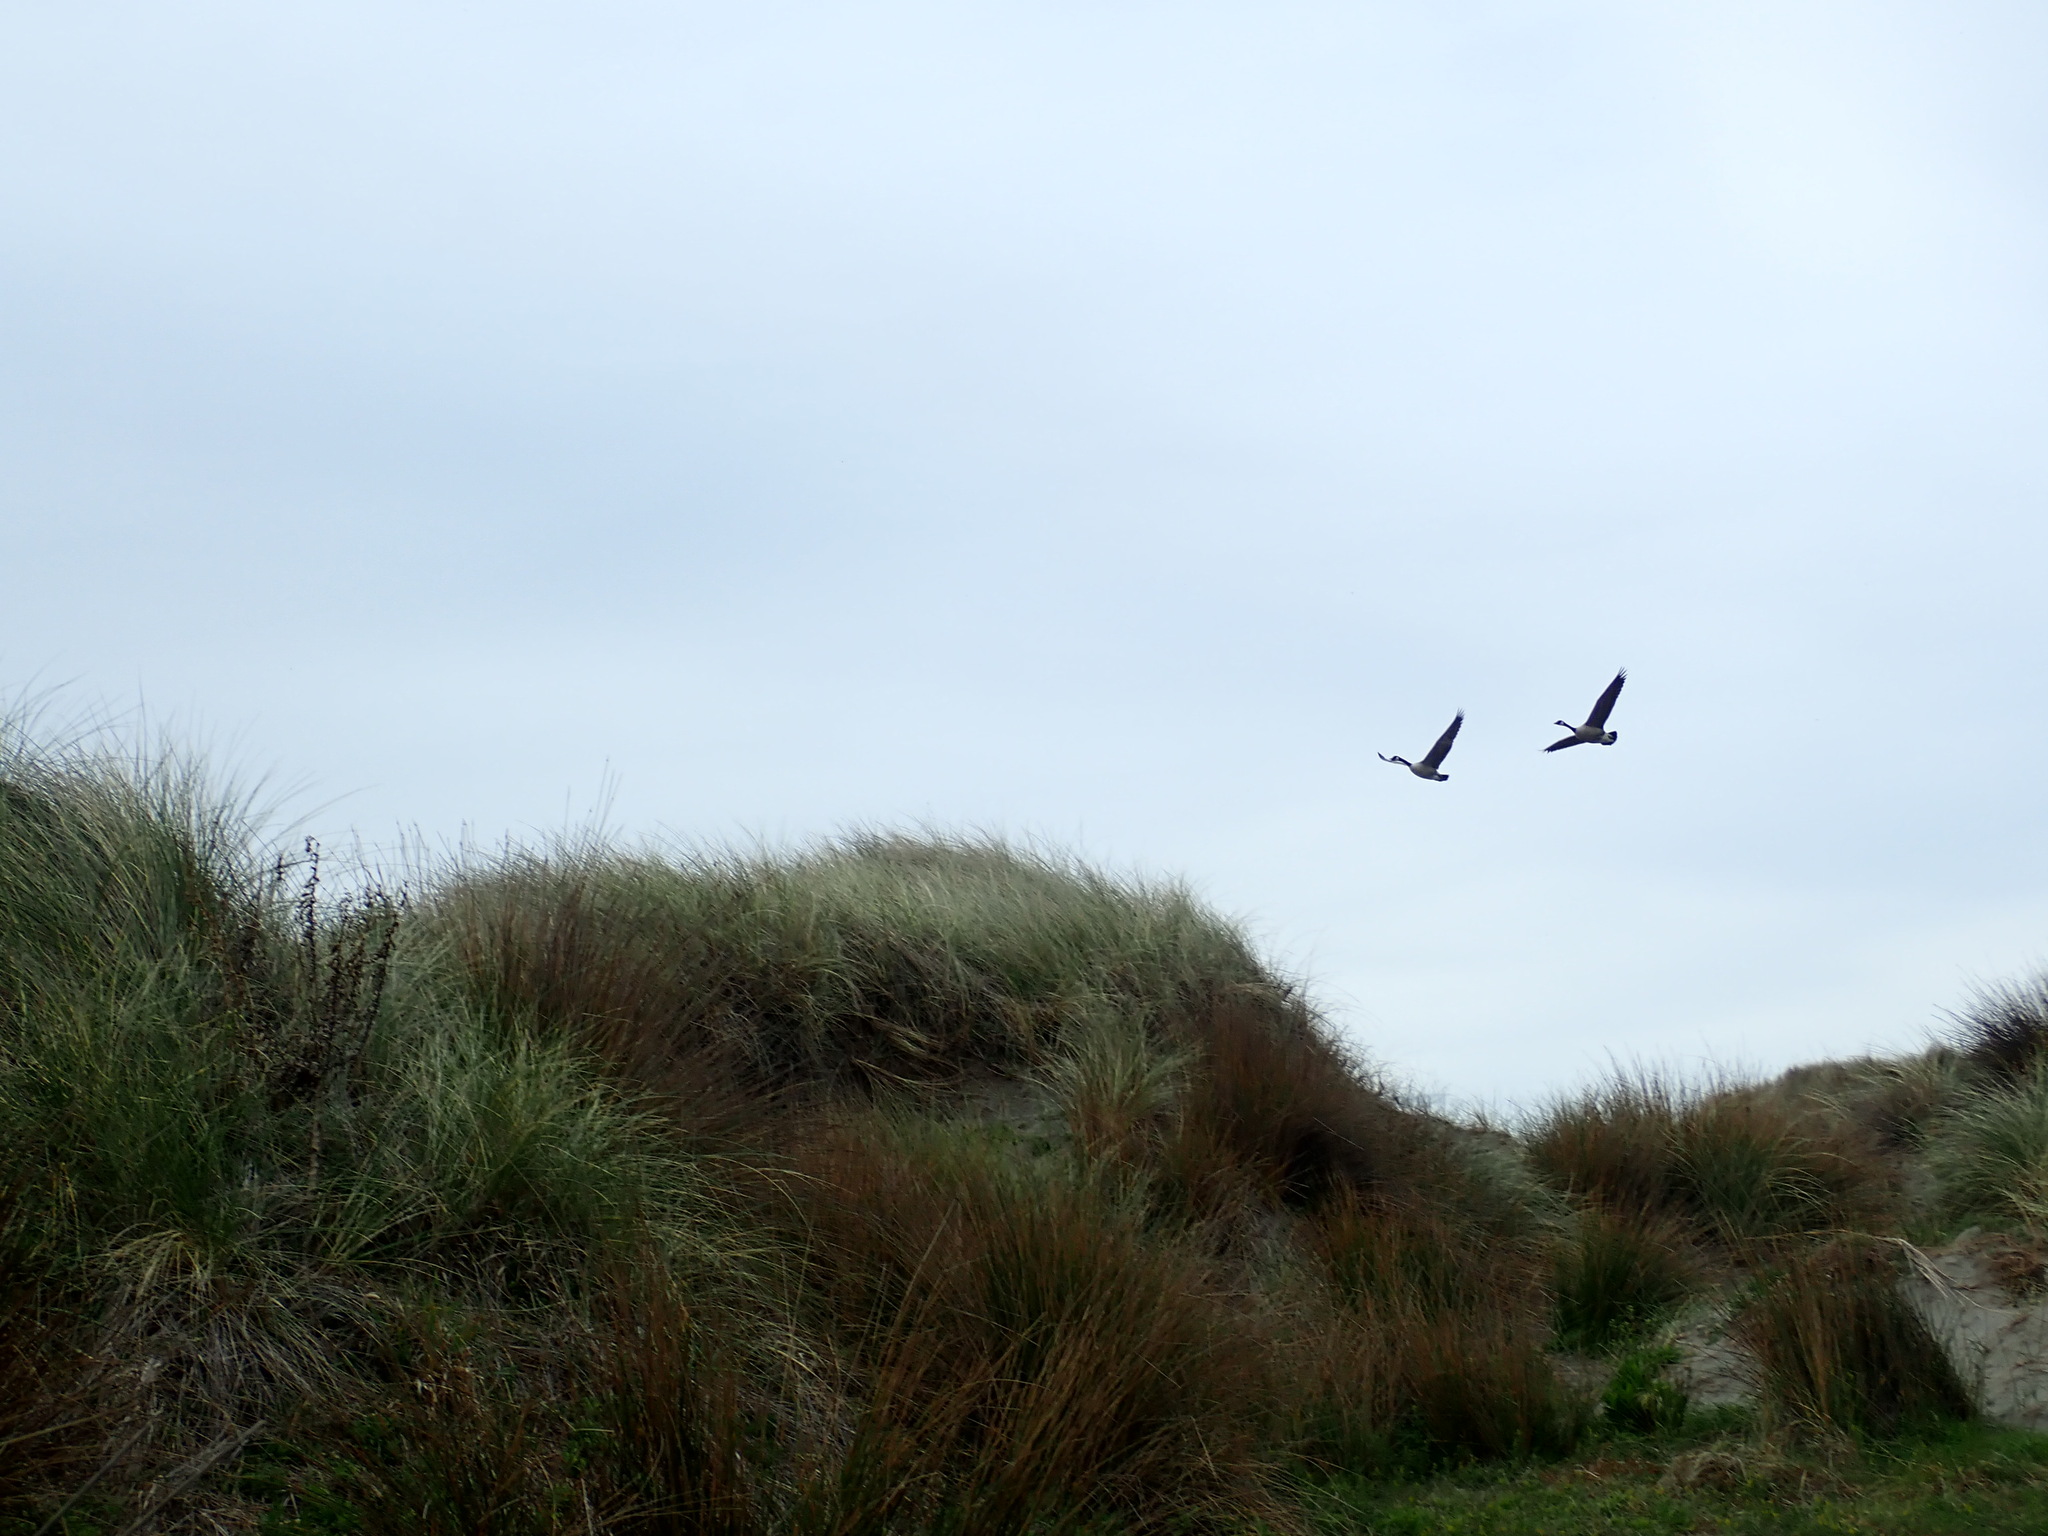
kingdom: Animalia
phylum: Chordata
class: Aves
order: Anseriformes
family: Anatidae
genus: Branta
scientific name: Branta canadensis
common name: Canada goose
